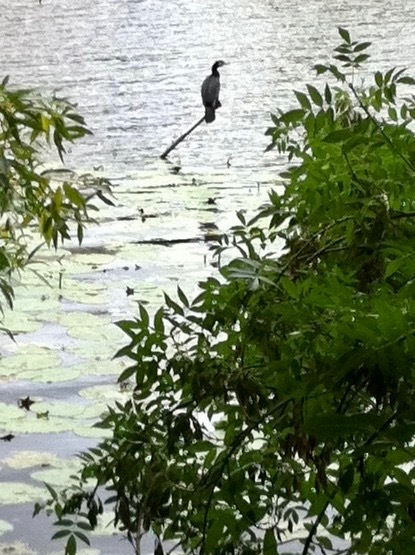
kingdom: Animalia
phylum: Chordata
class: Aves
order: Suliformes
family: Phalacrocoracidae
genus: Phalacrocorax
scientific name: Phalacrocorax carbo
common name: Great cormorant
